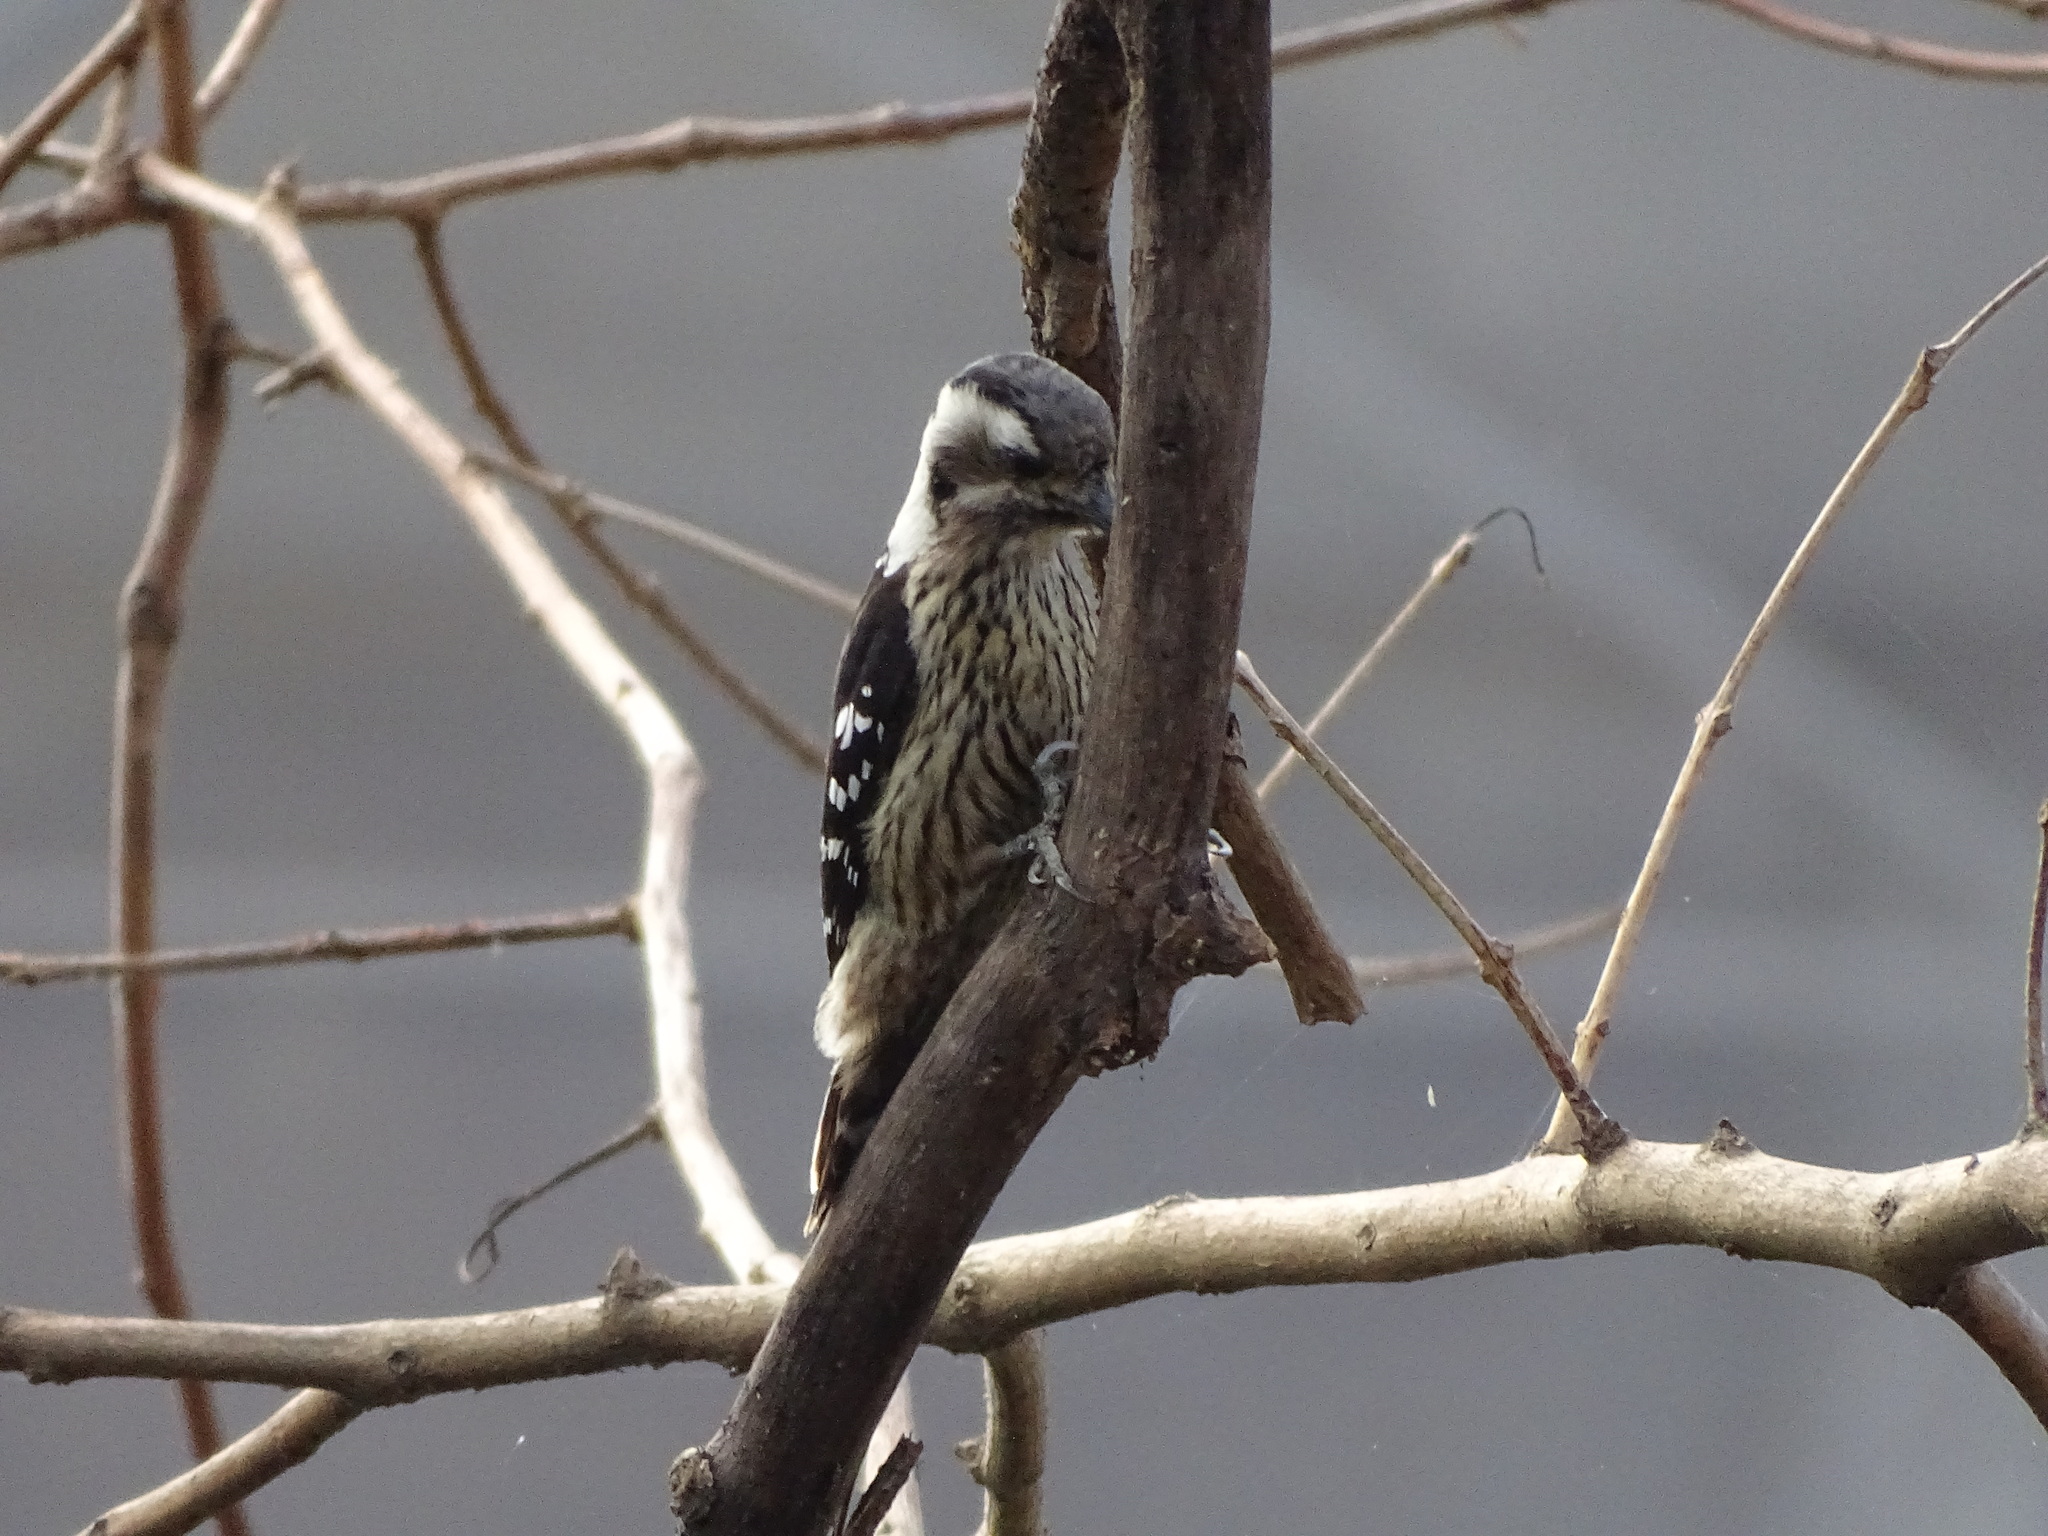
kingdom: Animalia
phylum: Chordata
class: Aves
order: Piciformes
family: Picidae
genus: Yungipicus
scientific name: Yungipicus canicapillus
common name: Grey-capped pygmy woodpecker
